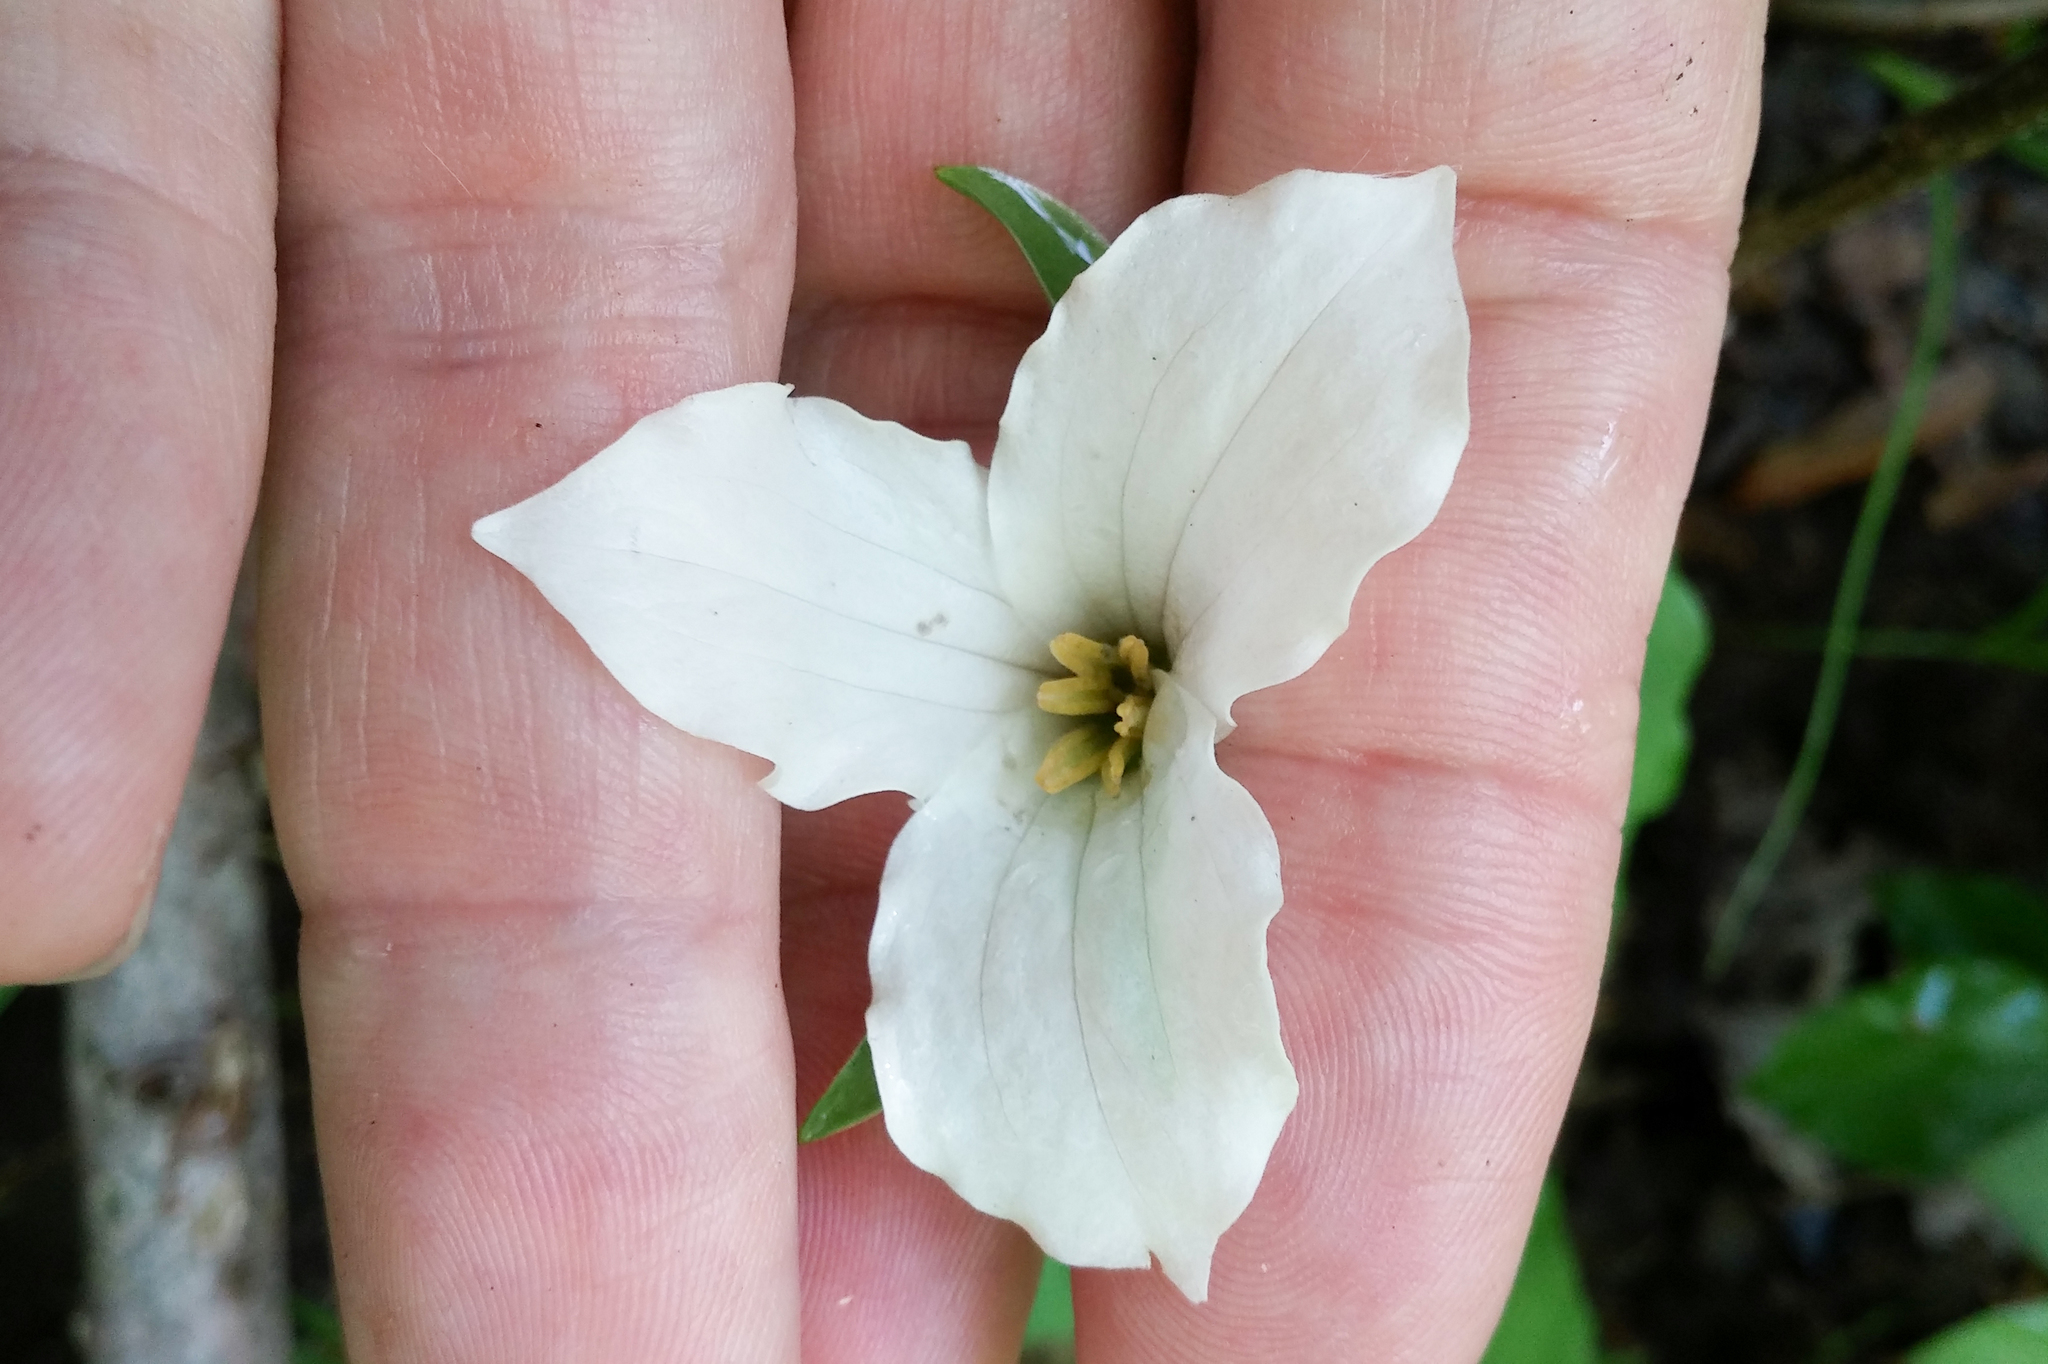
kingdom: Plantae
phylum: Tracheophyta
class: Liliopsida
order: Liliales
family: Melanthiaceae
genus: Trillium
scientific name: Trillium grandiflorum
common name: Great white trillium
